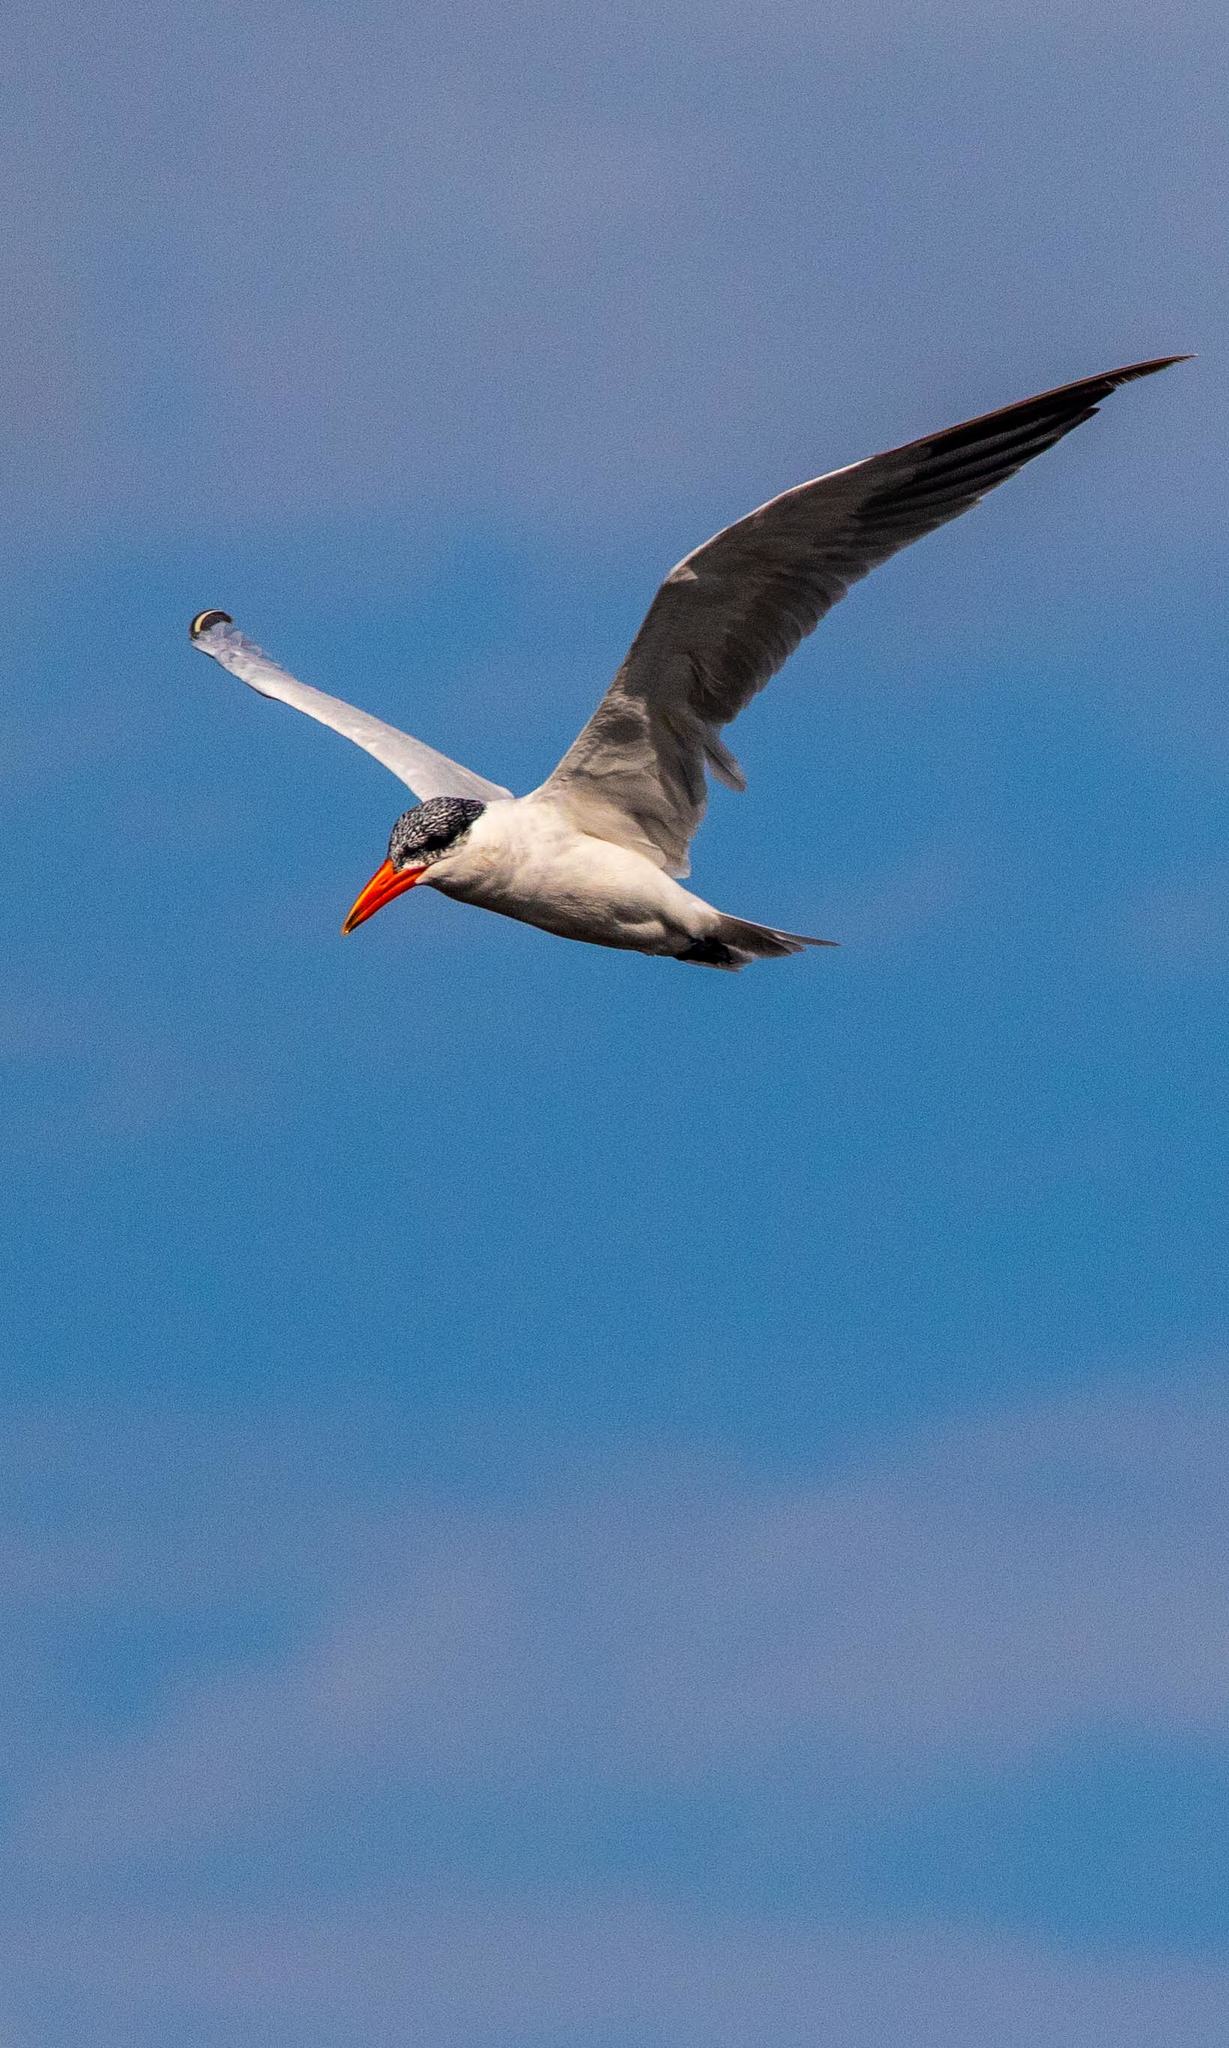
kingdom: Animalia
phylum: Chordata
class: Aves
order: Charadriiformes
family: Laridae
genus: Hydroprogne
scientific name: Hydroprogne caspia
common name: Caspian tern
